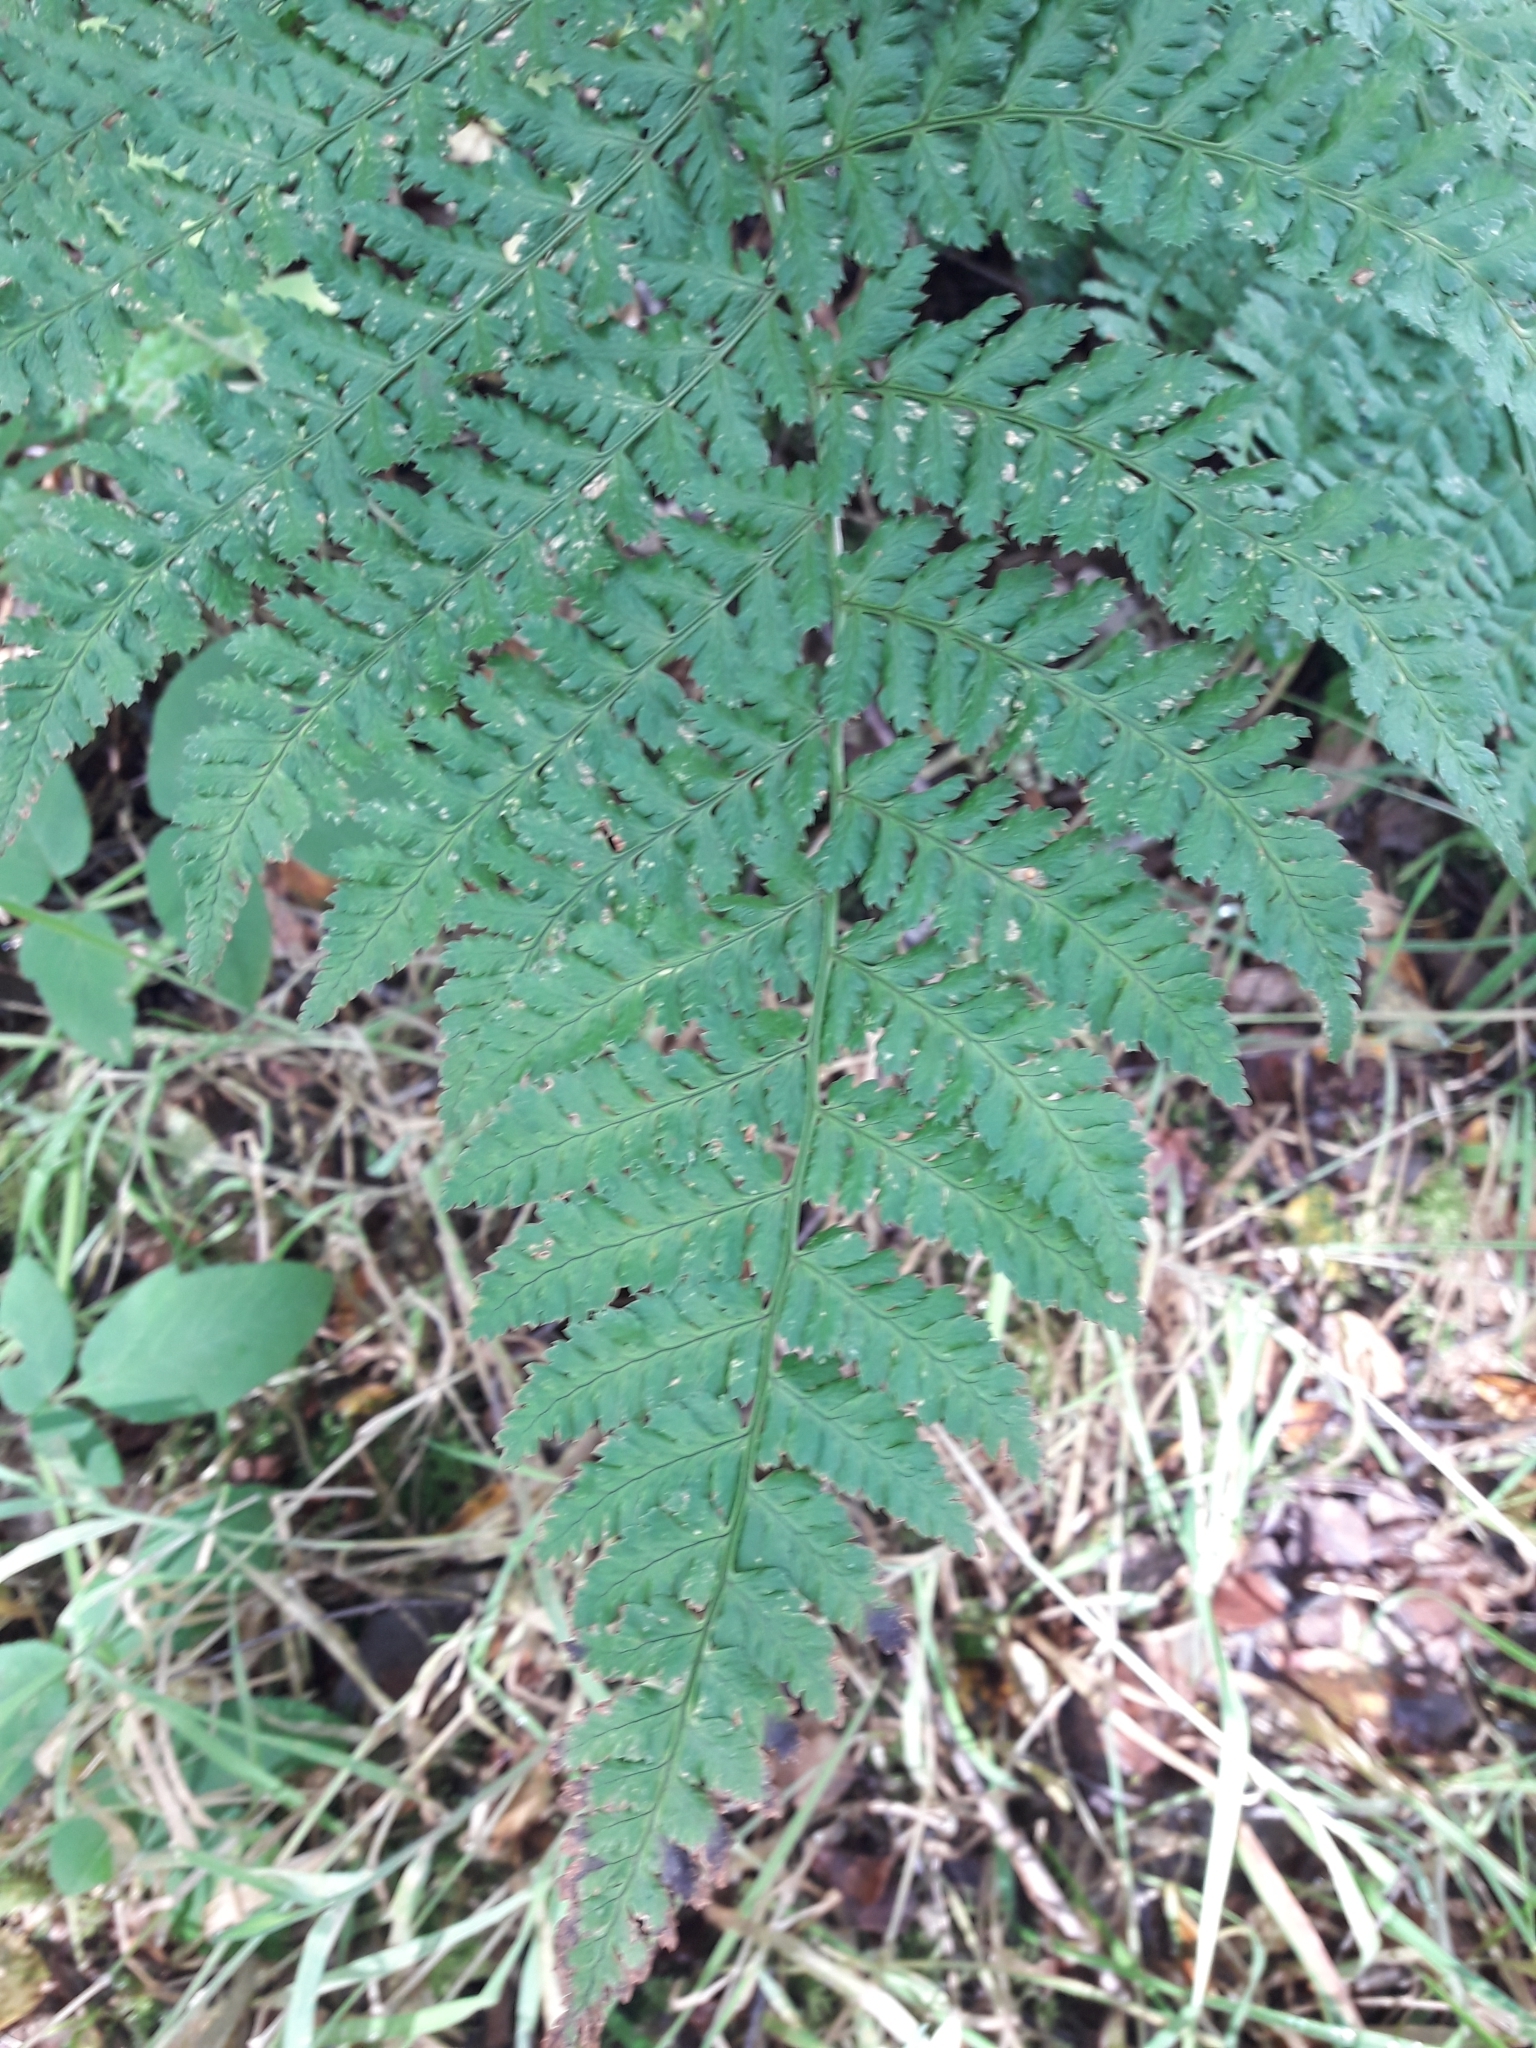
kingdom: Plantae
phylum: Tracheophyta
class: Polypodiopsida
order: Polypodiales
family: Dryopteridaceae
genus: Dryopteris
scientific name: Dryopteris dilatata
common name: Broad buckler-fern
